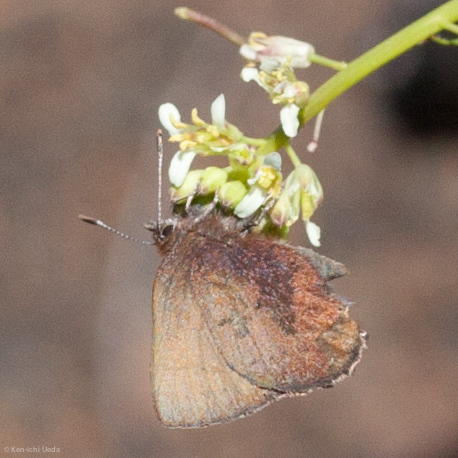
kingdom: Animalia
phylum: Arthropoda
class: Insecta
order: Lepidoptera
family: Lycaenidae
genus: Incisalia
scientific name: Incisalia irioides
